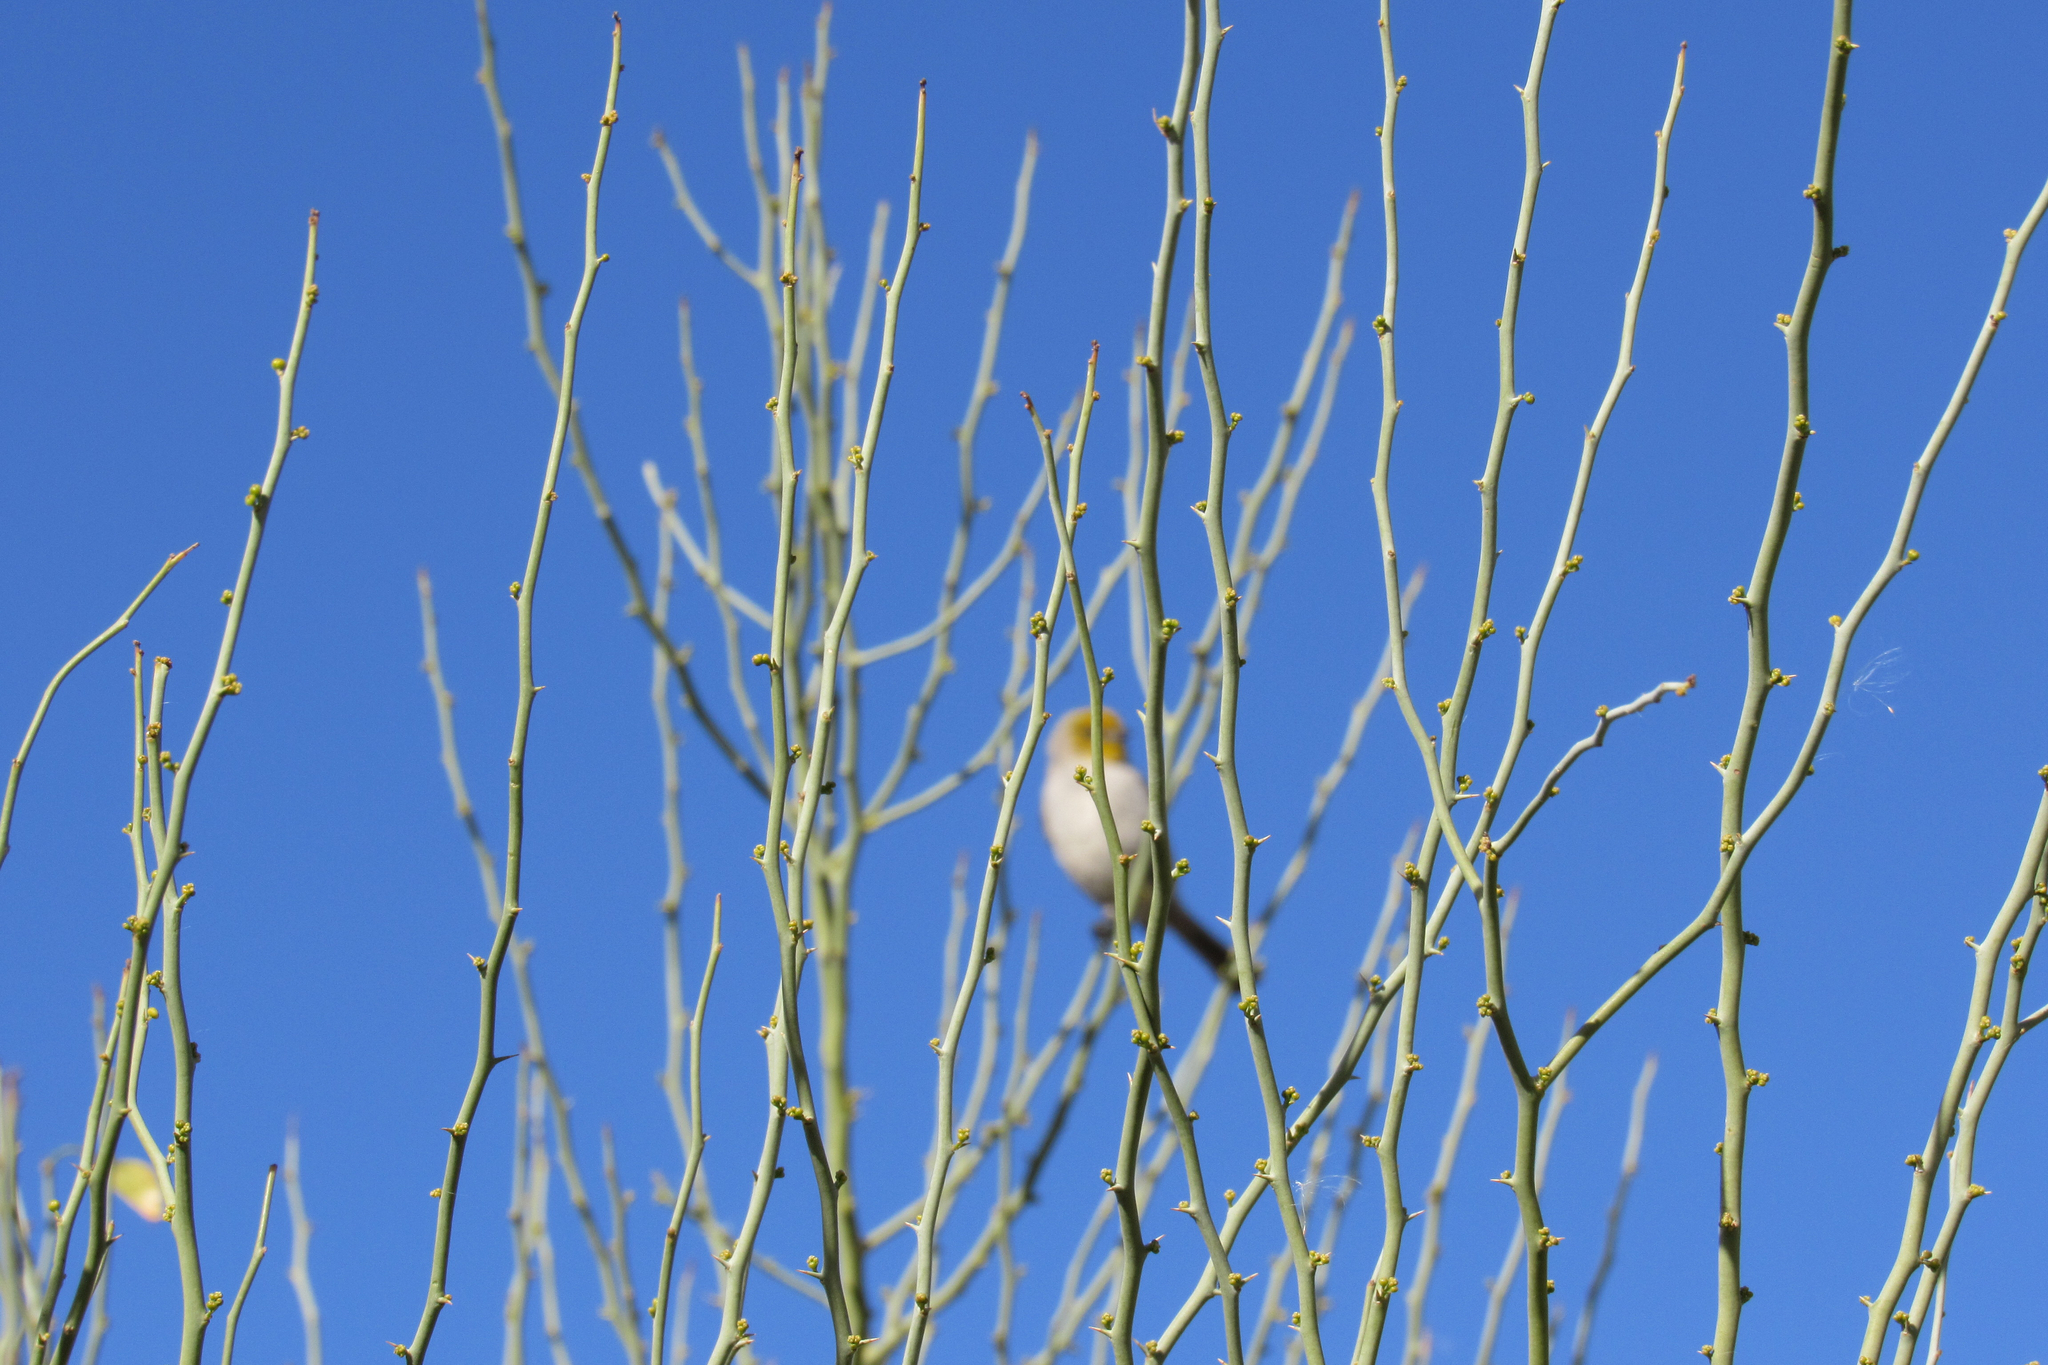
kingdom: Animalia
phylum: Chordata
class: Aves
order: Passeriformes
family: Remizidae
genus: Auriparus
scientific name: Auriparus flaviceps
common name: Verdin
